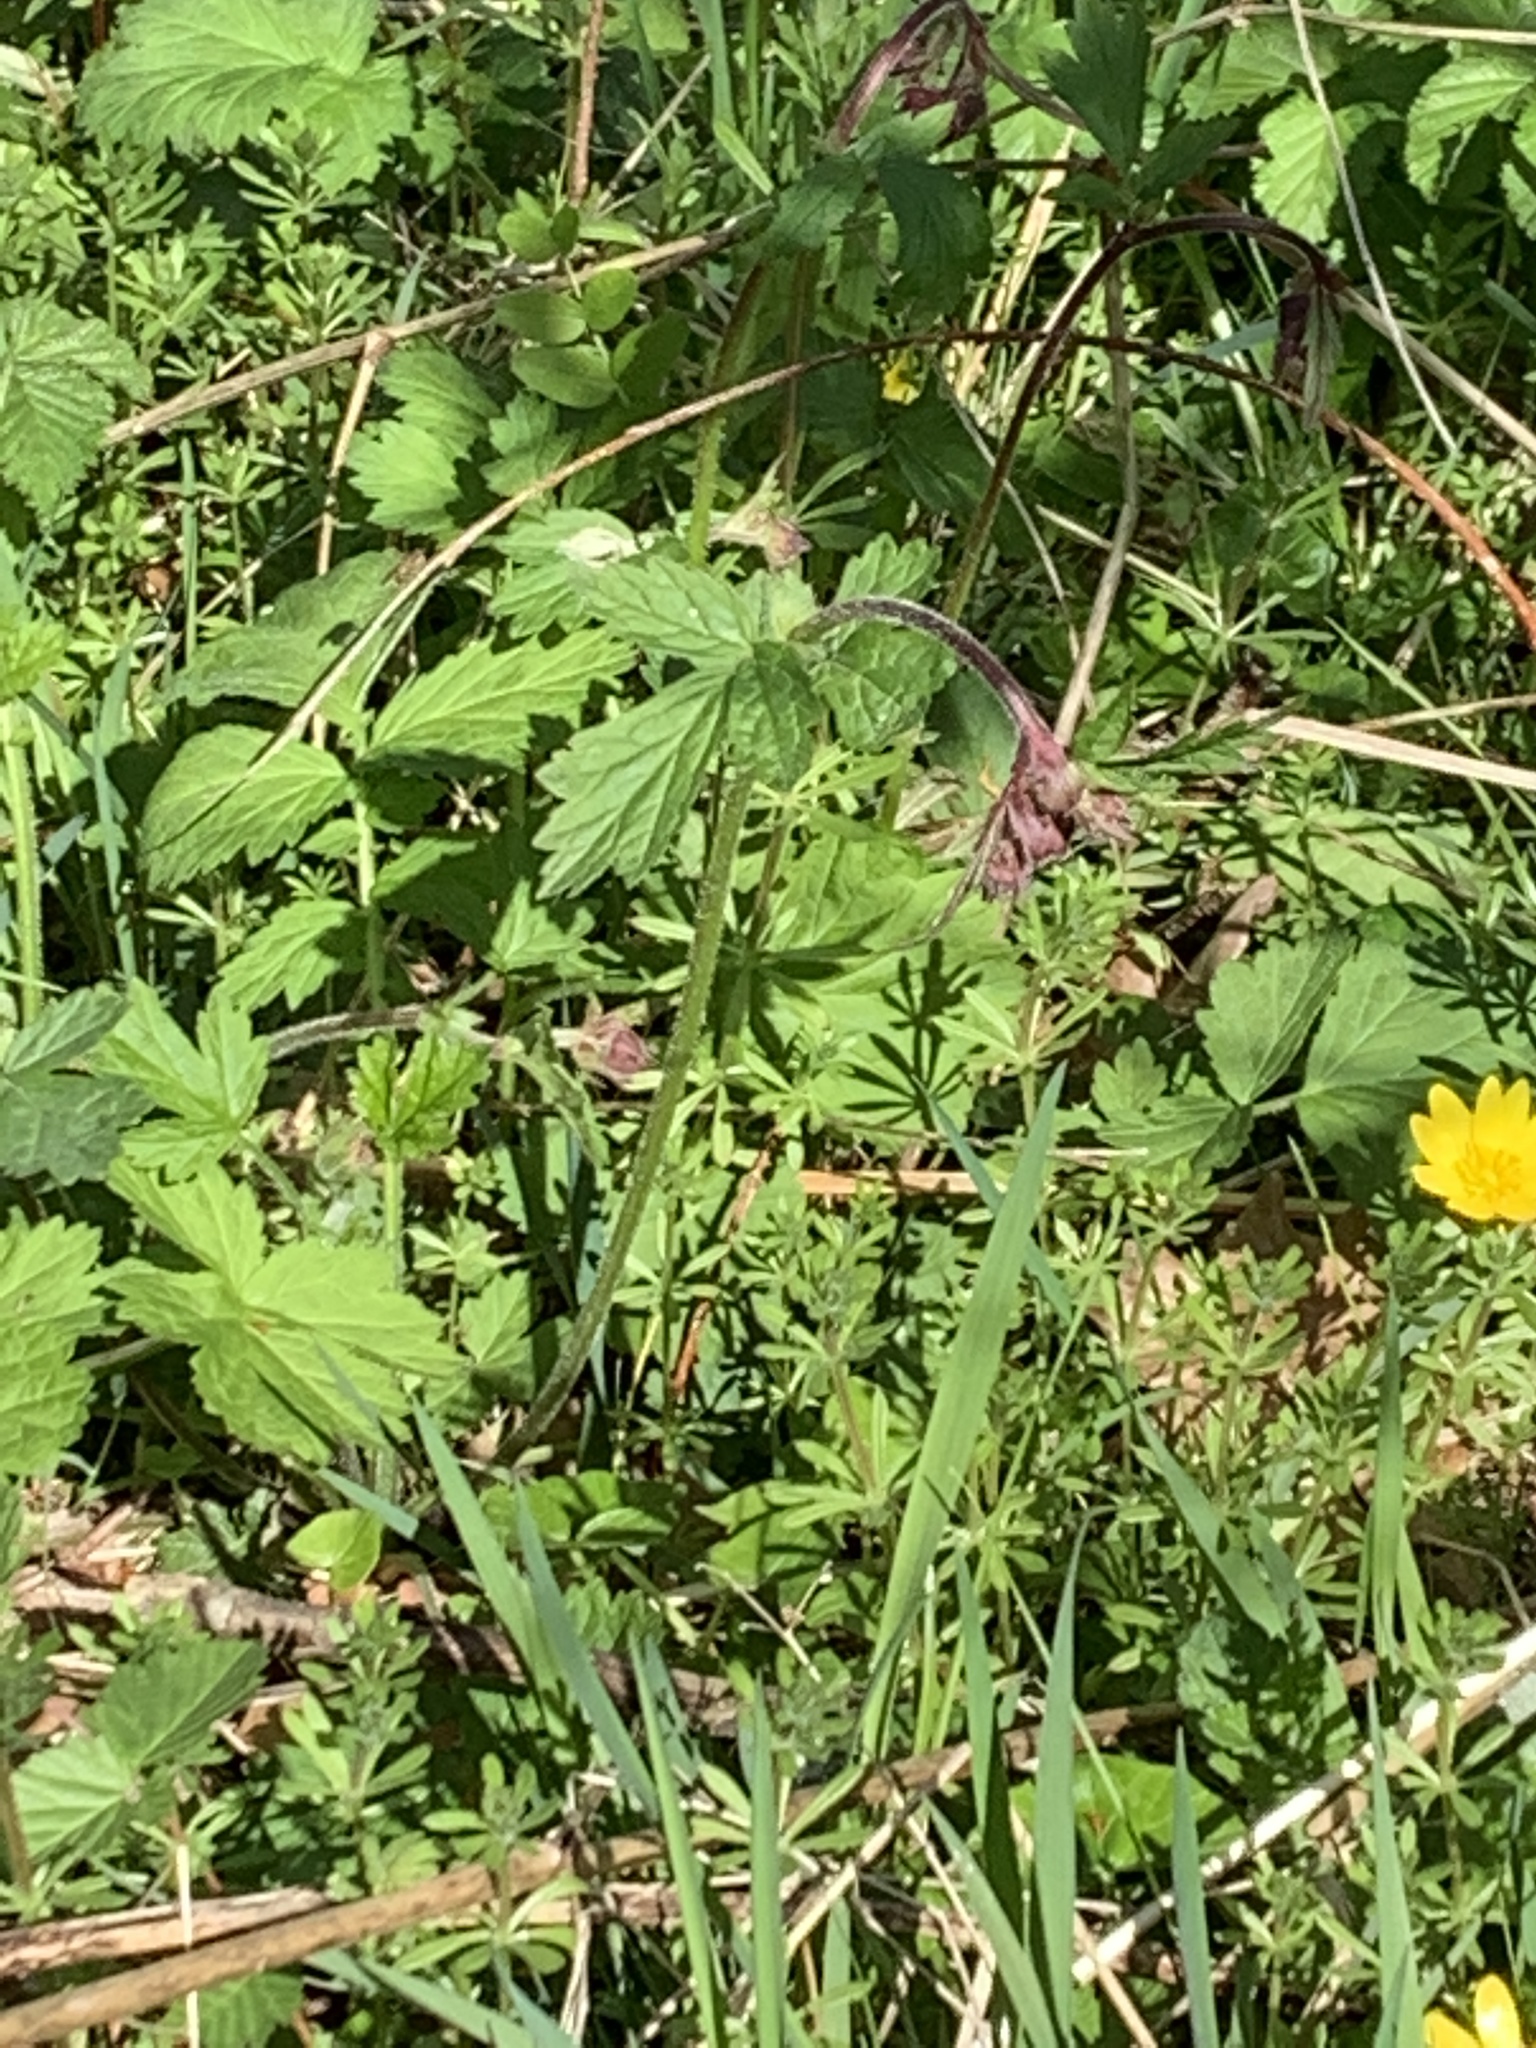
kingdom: Plantae
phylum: Tracheophyta
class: Magnoliopsida
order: Rosales
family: Rosaceae
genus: Geum
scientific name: Geum rivale
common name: Water avens
